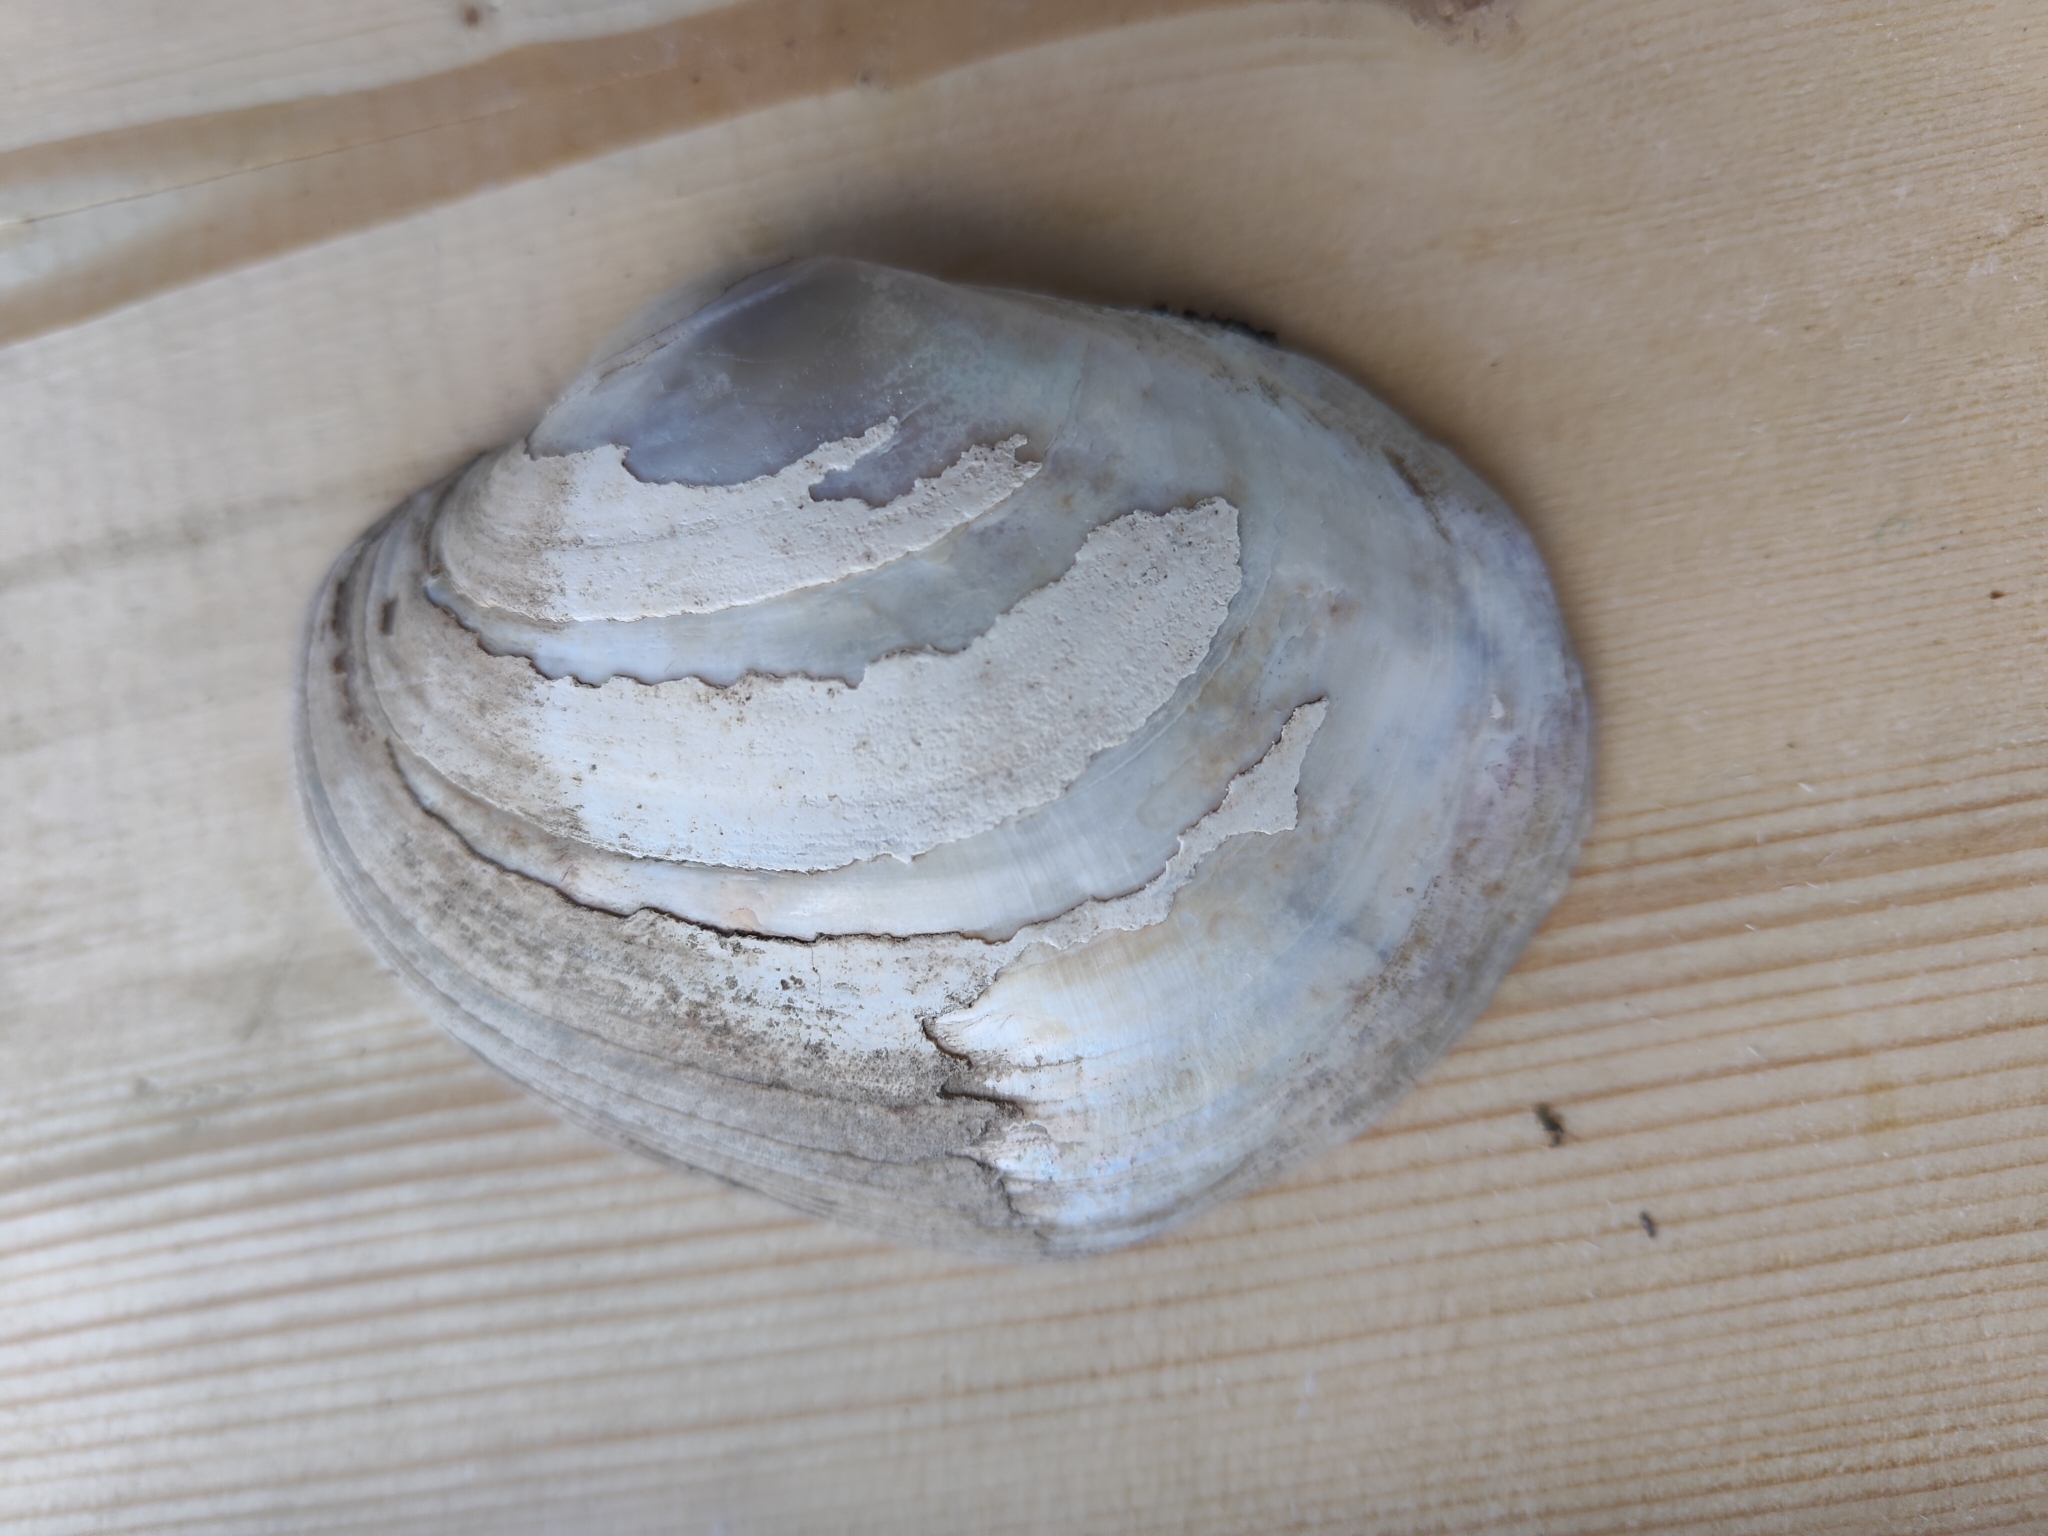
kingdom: Animalia
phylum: Mollusca
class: Bivalvia
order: Unionida
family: Unionidae
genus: Lampsilis
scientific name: Lampsilis cardium
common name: Plain pocketbook
